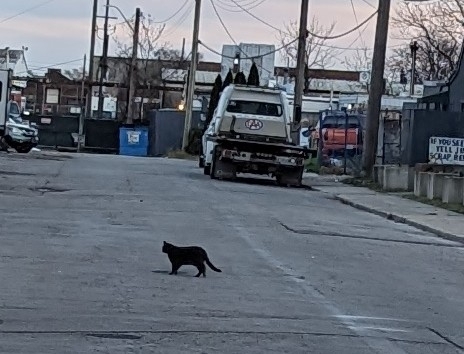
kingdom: Animalia
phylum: Chordata
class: Mammalia
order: Carnivora
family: Felidae
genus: Felis
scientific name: Felis catus
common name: Domestic cat
